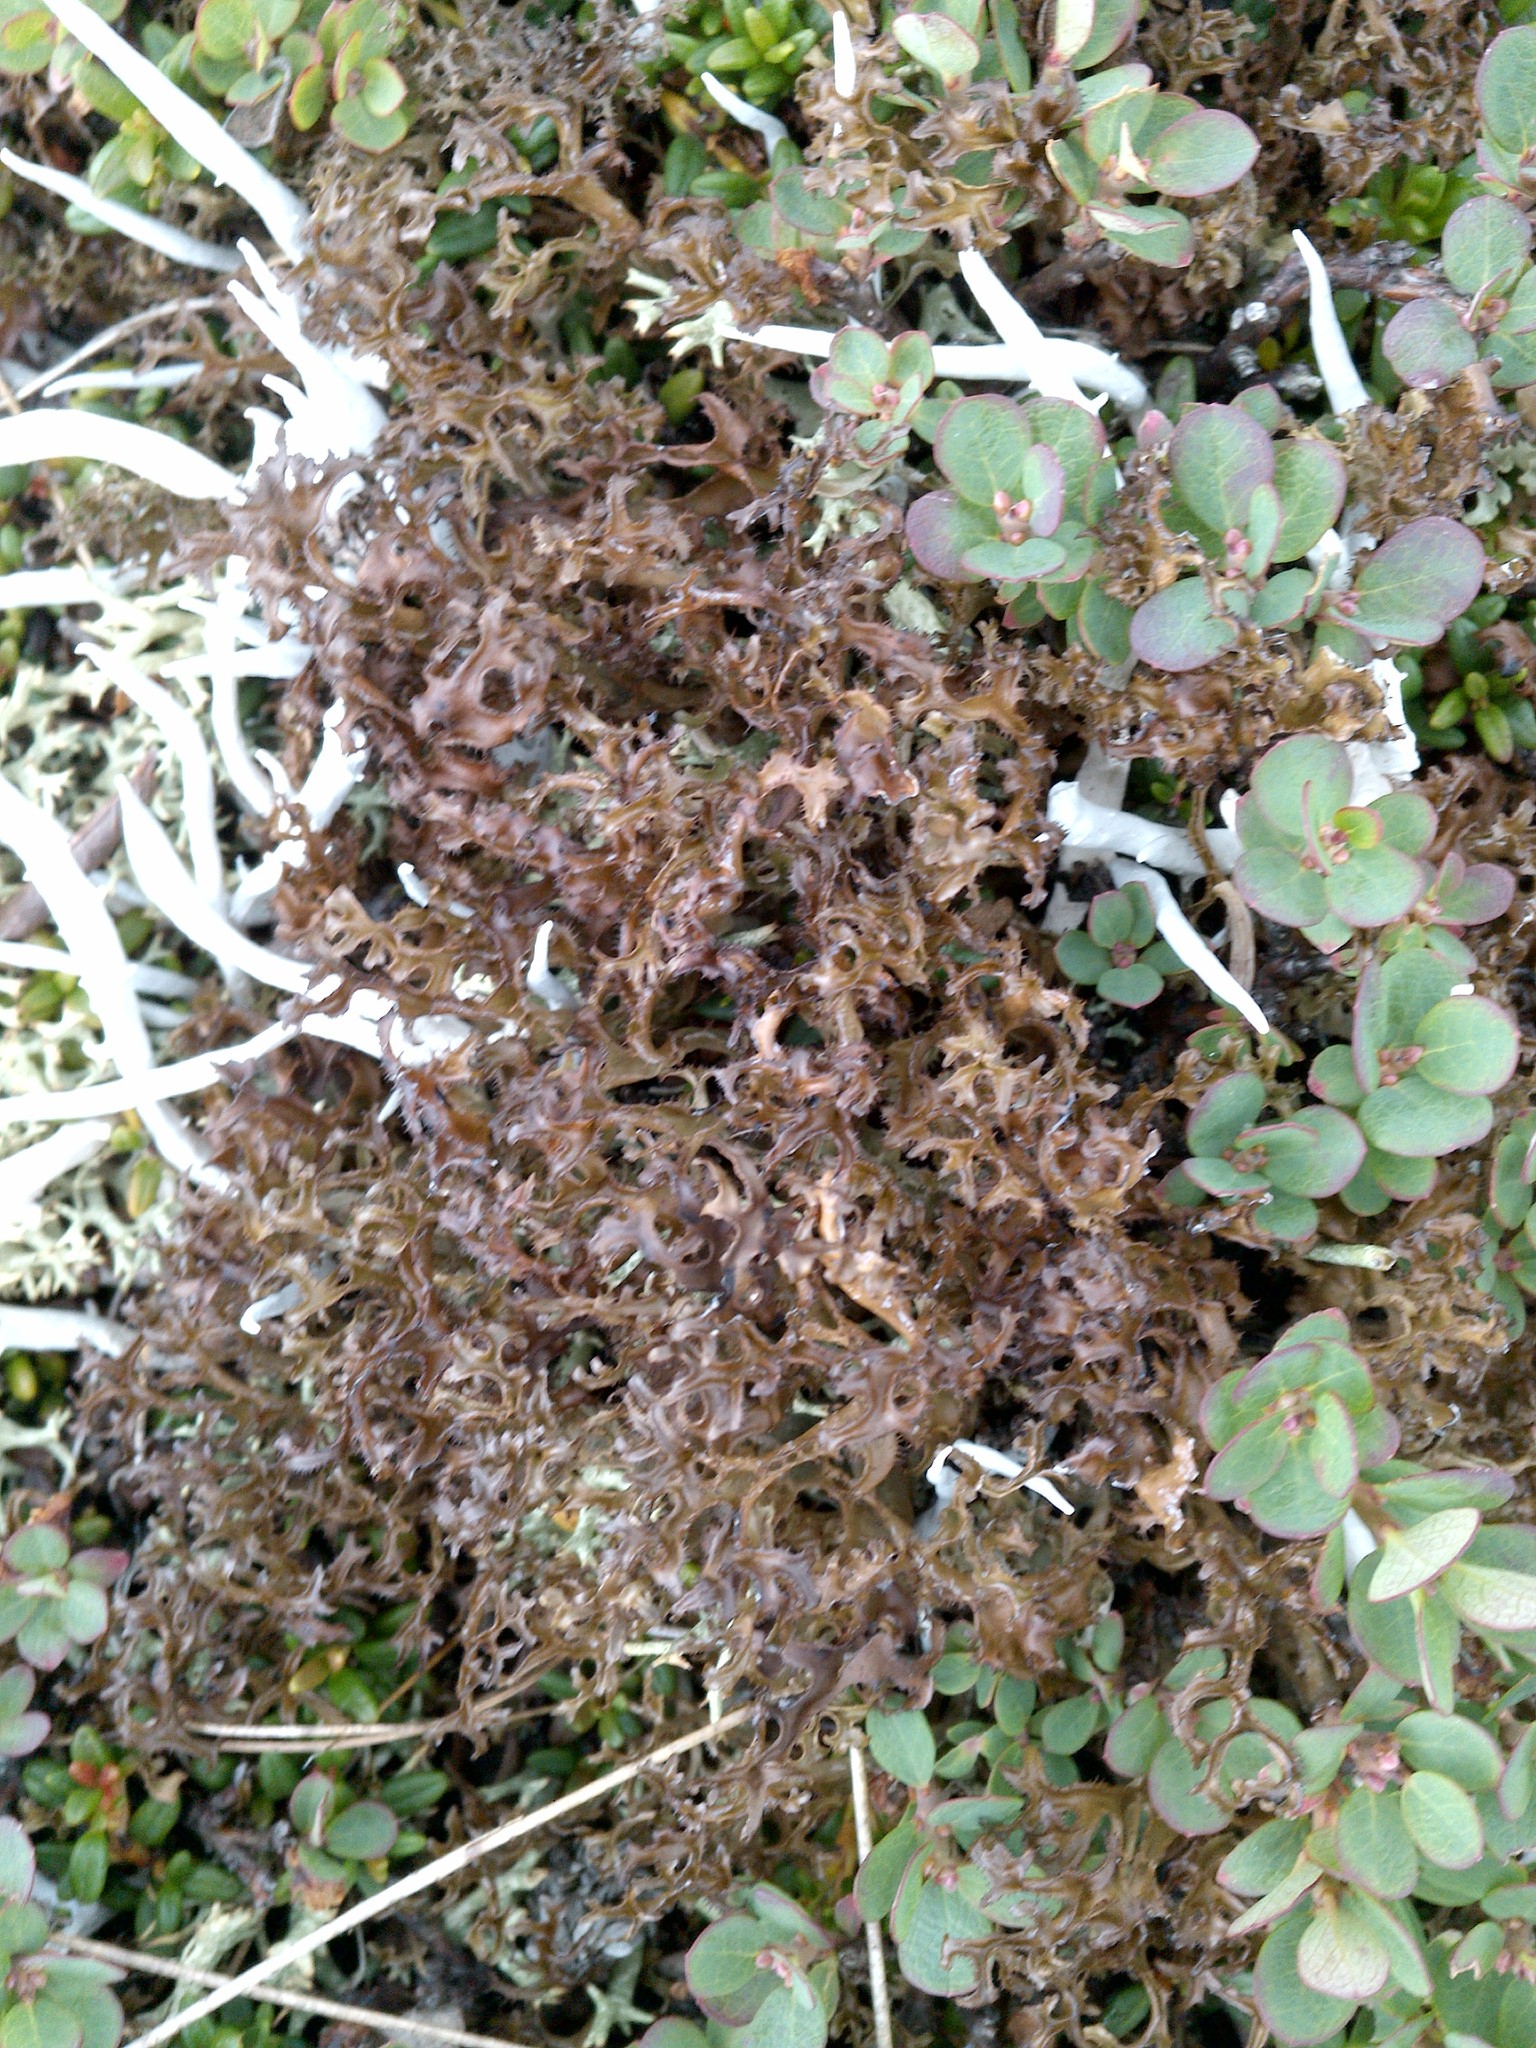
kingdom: Fungi
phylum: Ascomycota
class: Lecanoromycetes
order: Lecanorales
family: Parmeliaceae
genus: Cetraria
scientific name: Cetraria laevigata
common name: Striped iceland lichen
